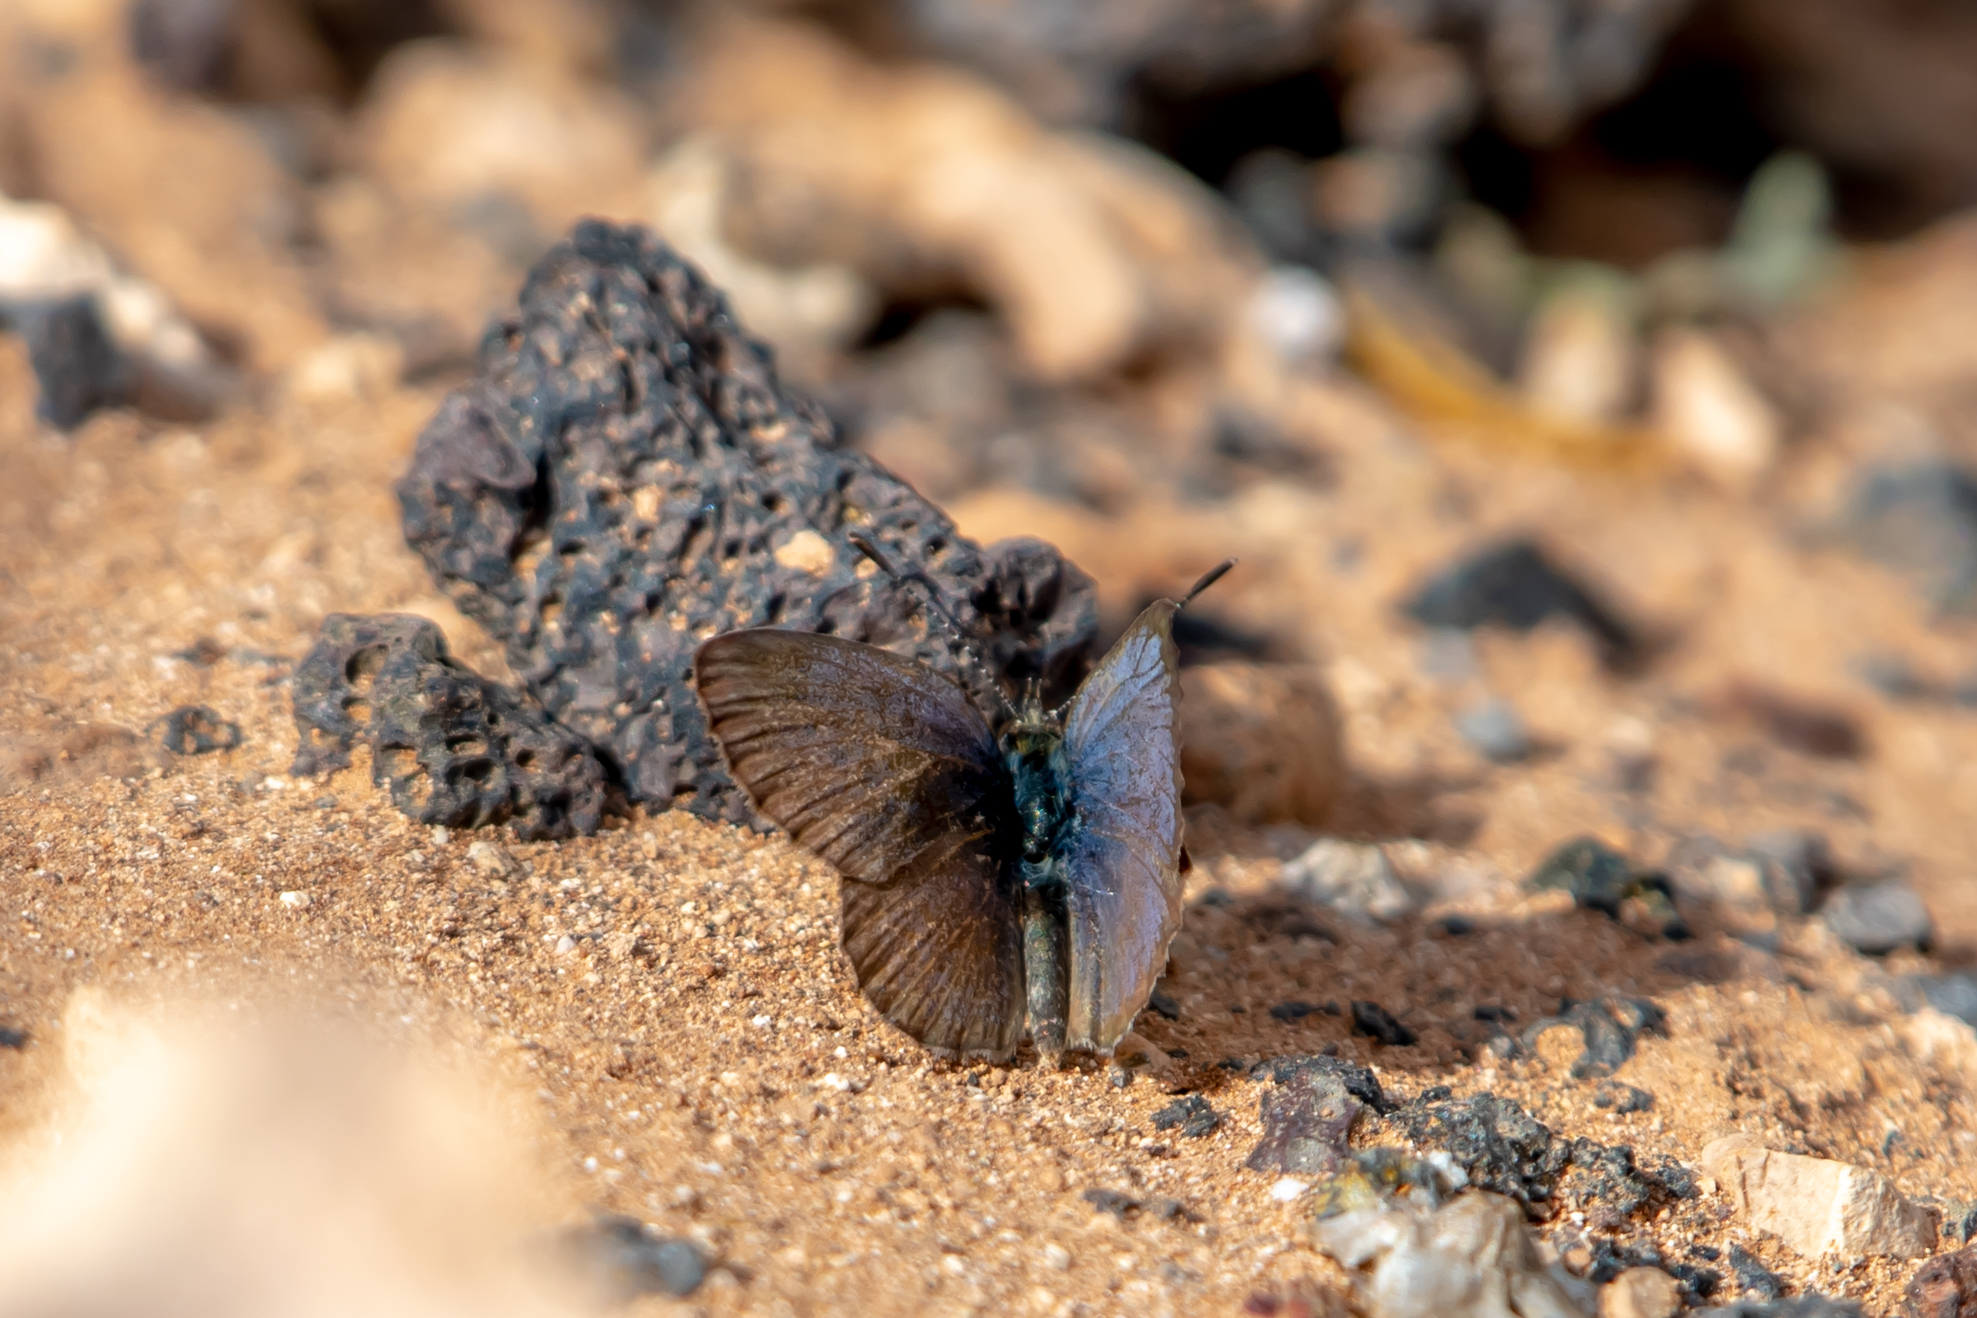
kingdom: Animalia
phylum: Arthropoda
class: Insecta
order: Lepidoptera
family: Lycaenidae
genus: Zizeeria
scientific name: Zizeeria knysna
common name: African grass blue
